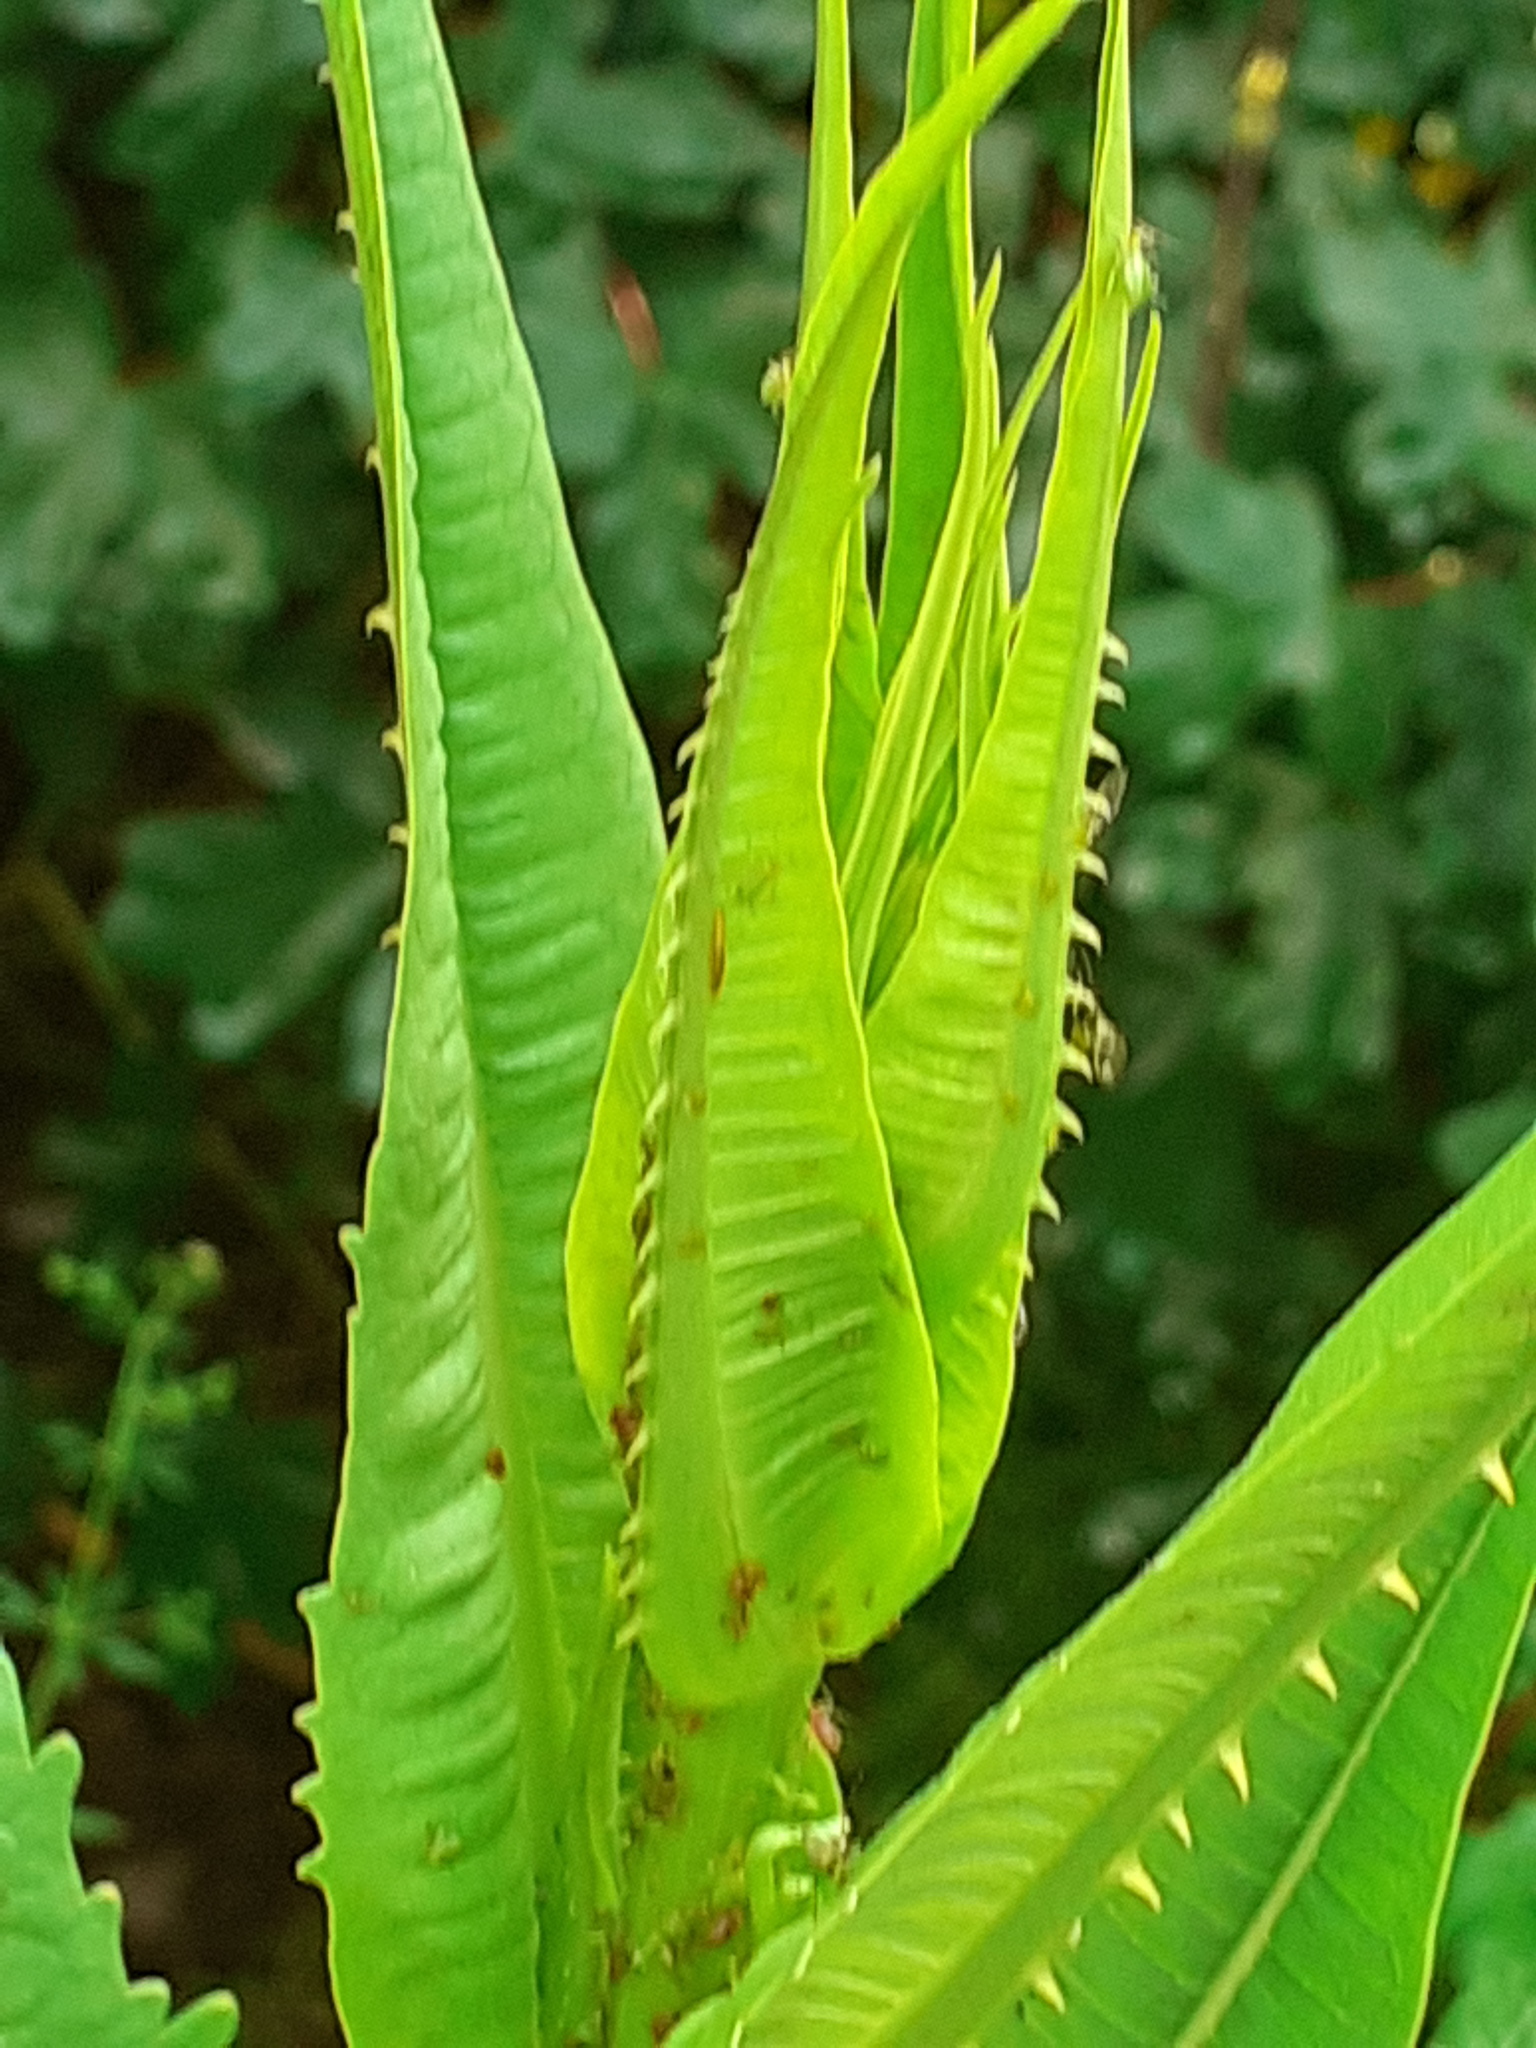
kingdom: Plantae
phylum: Tracheophyta
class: Magnoliopsida
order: Dipsacales
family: Caprifoliaceae
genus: Dipsacus
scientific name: Dipsacus fullonum
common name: Teasel
